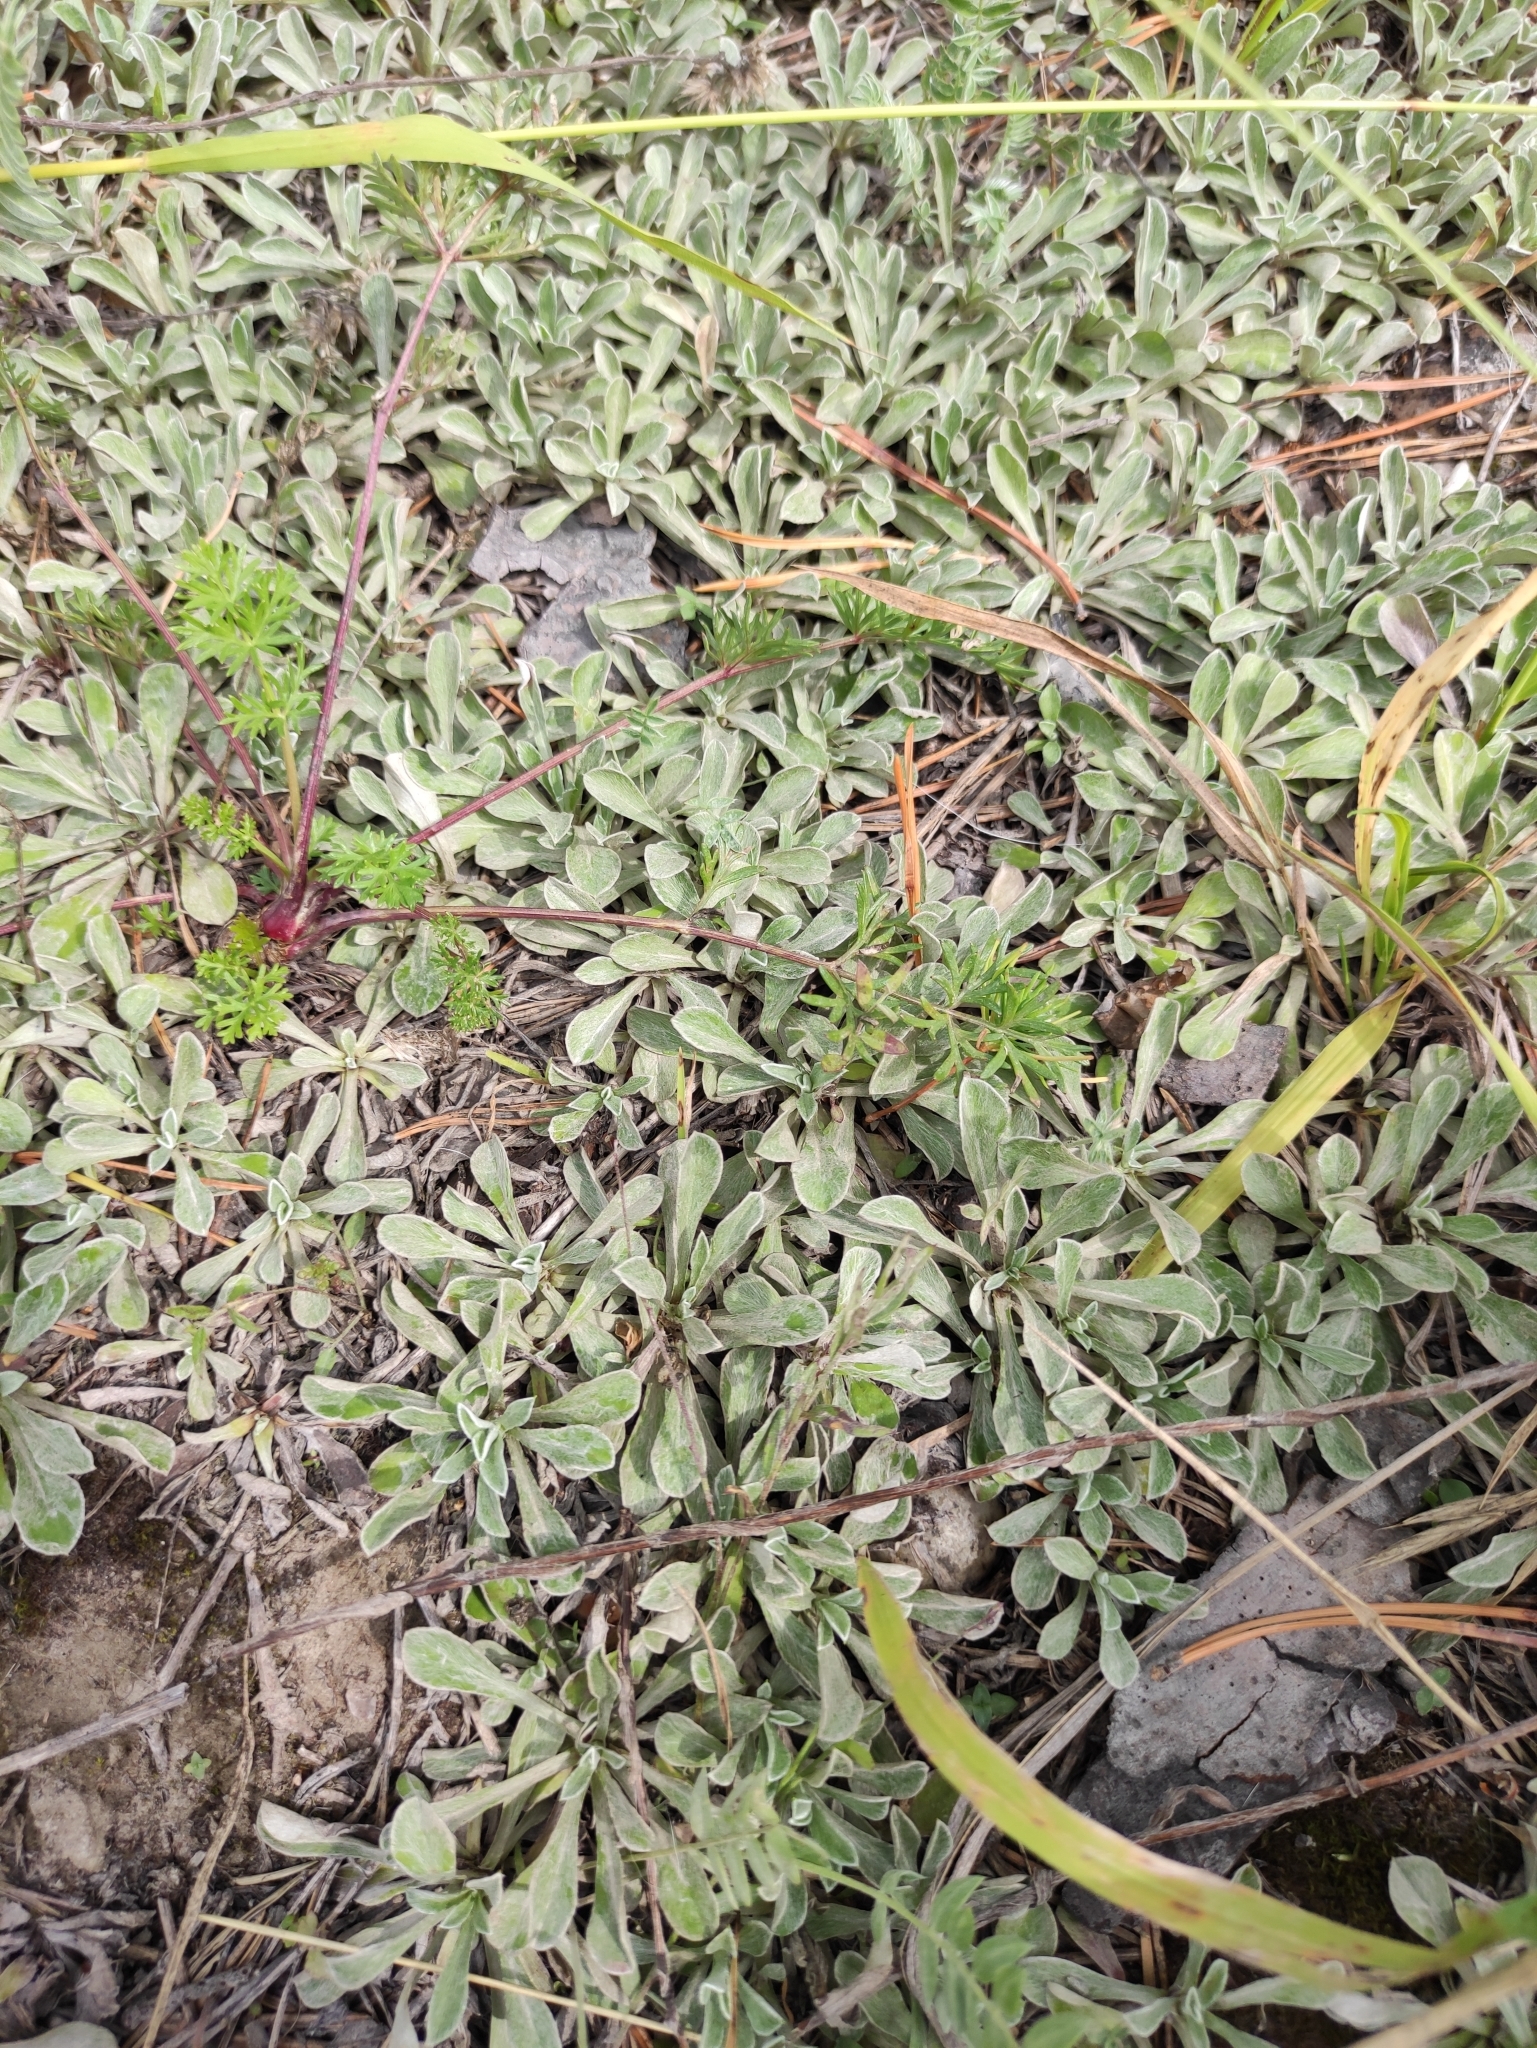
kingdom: Plantae
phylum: Tracheophyta
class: Magnoliopsida
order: Asterales
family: Asteraceae
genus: Antennaria
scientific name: Antennaria dioica
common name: Mountain everlasting
